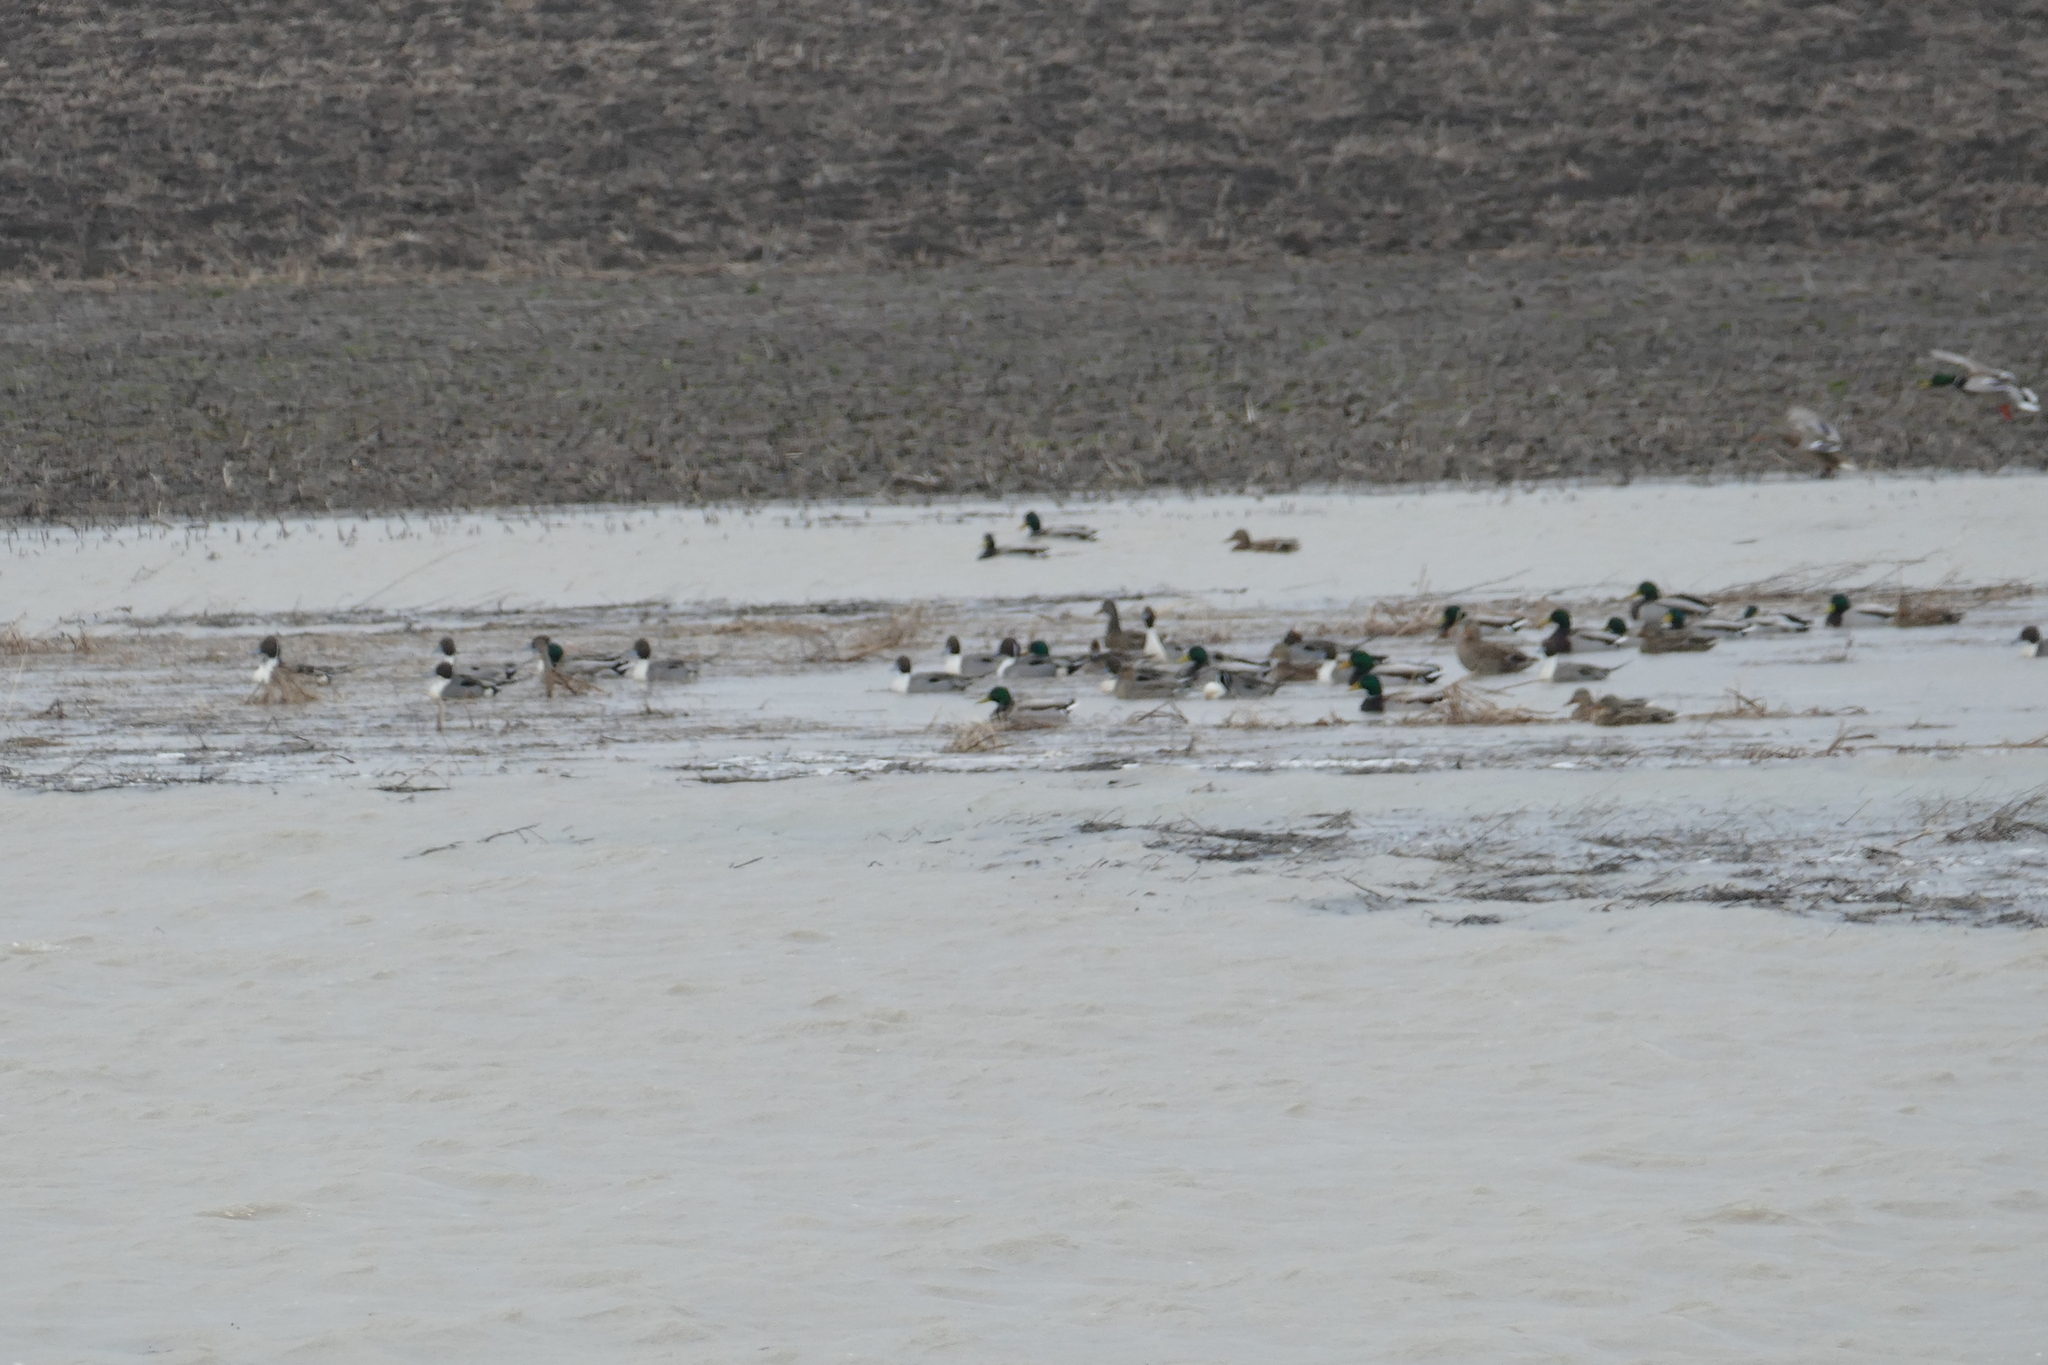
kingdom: Animalia
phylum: Chordata
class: Aves
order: Anseriformes
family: Anatidae
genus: Anas
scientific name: Anas acuta
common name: Northern pintail
